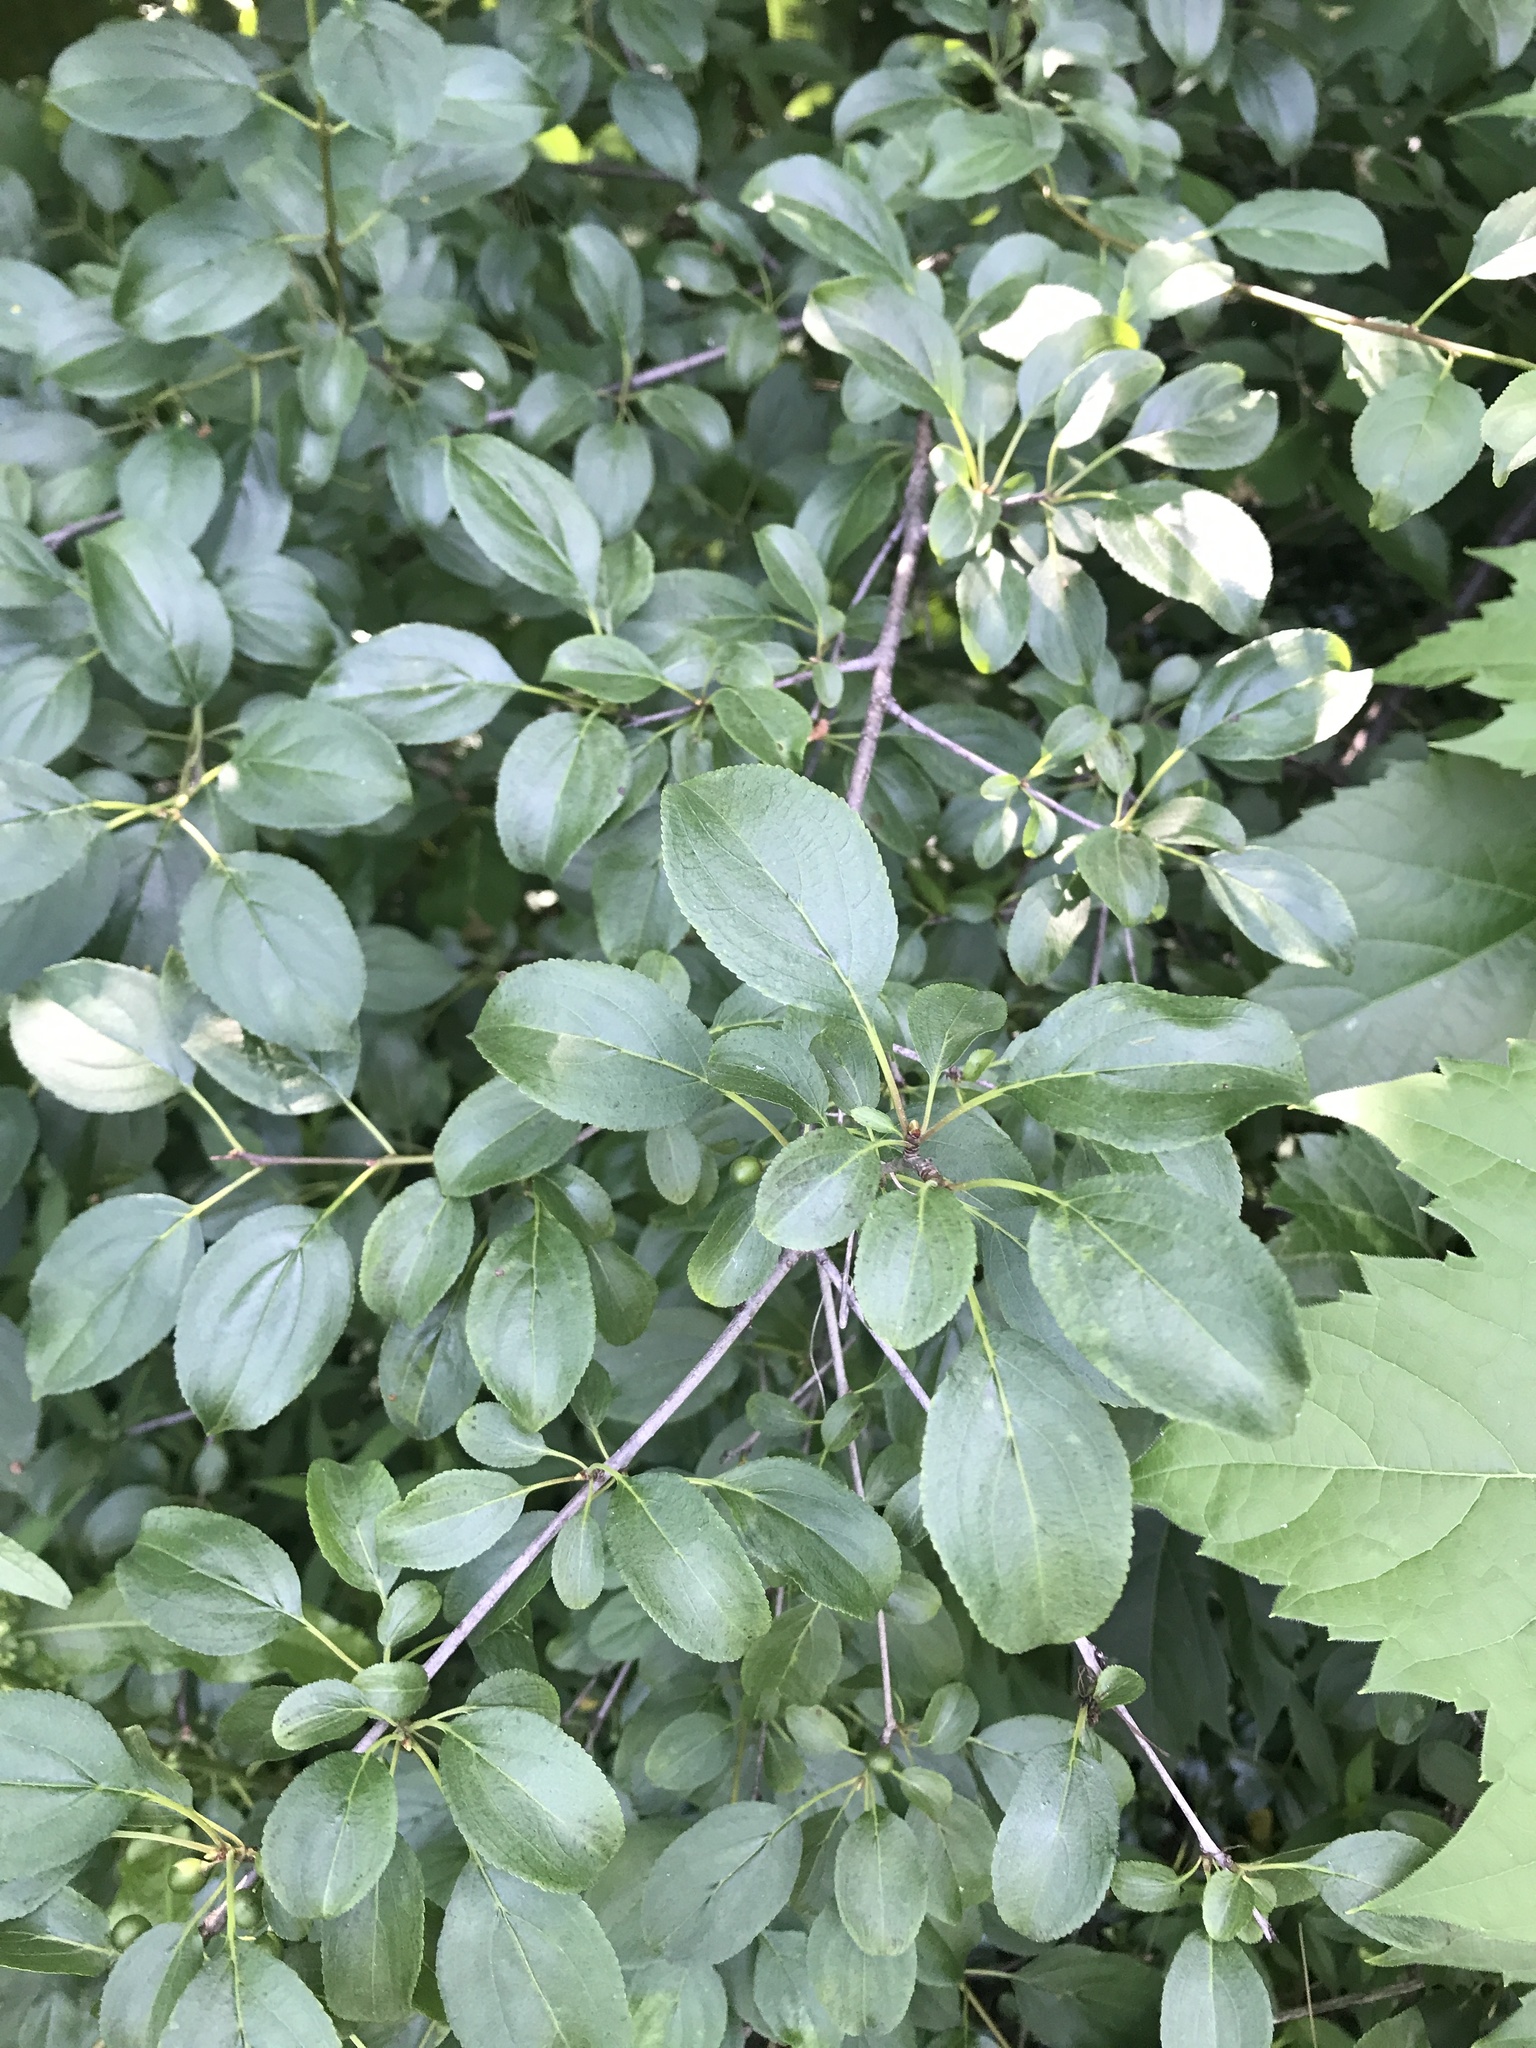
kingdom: Plantae
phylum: Tracheophyta
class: Magnoliopsida
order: Rosales
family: Rhamnaceae
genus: Rhamnus
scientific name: Rhamnus cathartica
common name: Common buckthorn
